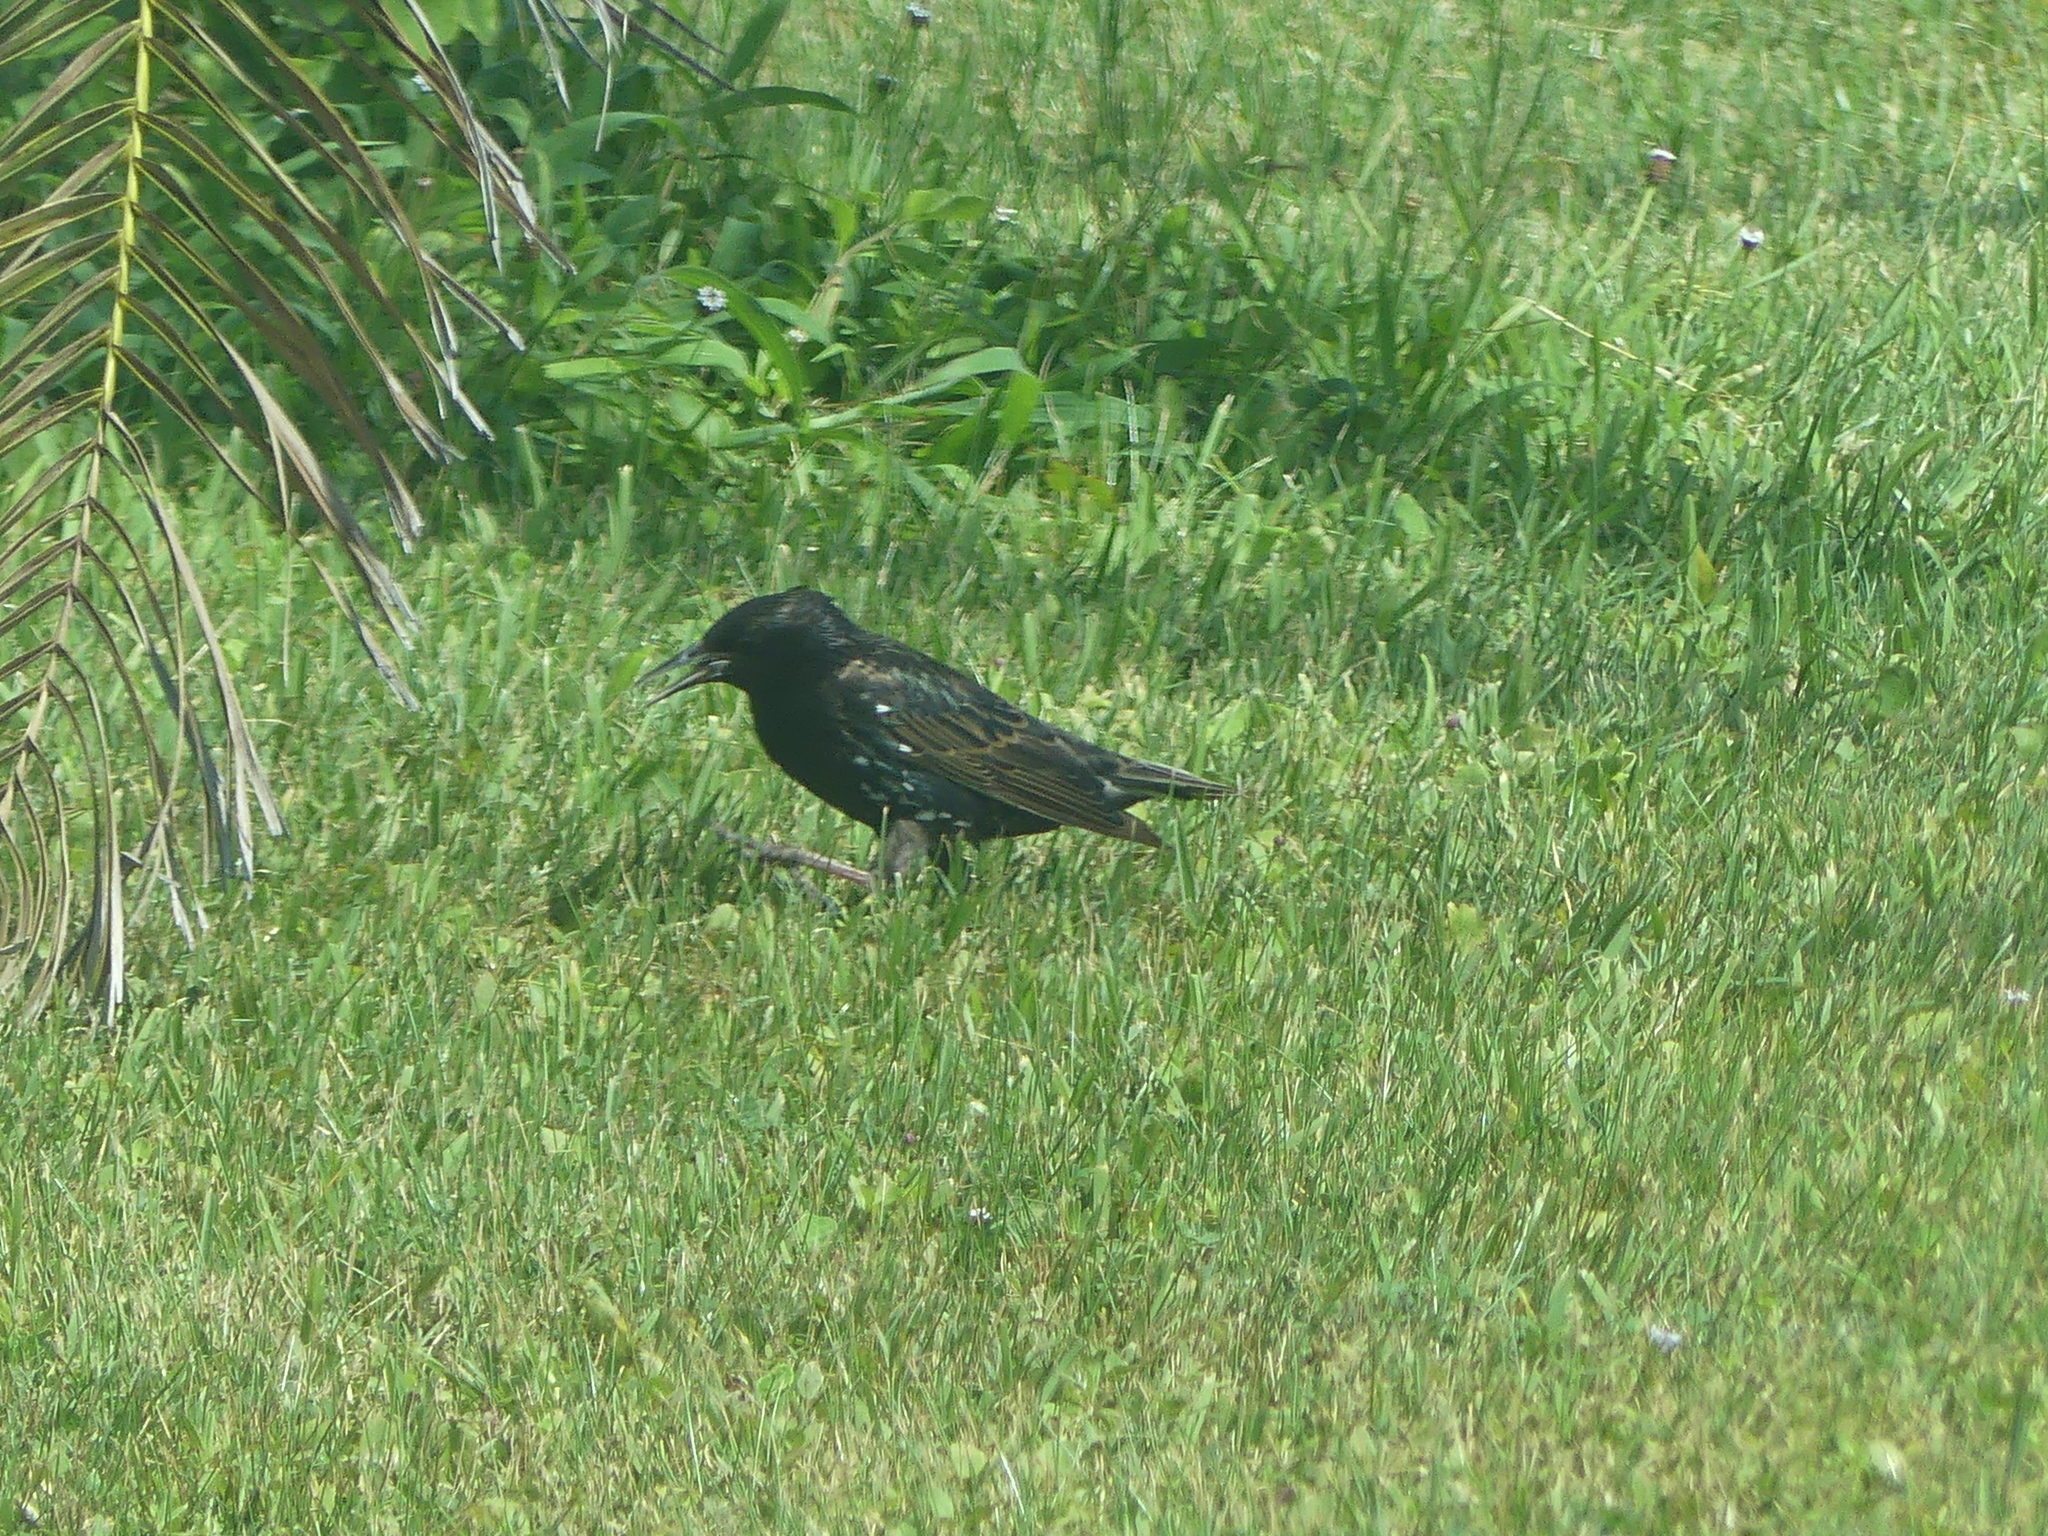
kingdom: Animalia
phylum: Chordata
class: Aves
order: Passeriformes
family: Sturnidae
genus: Sturnus
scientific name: Sturnus vulgaris
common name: Common starling
